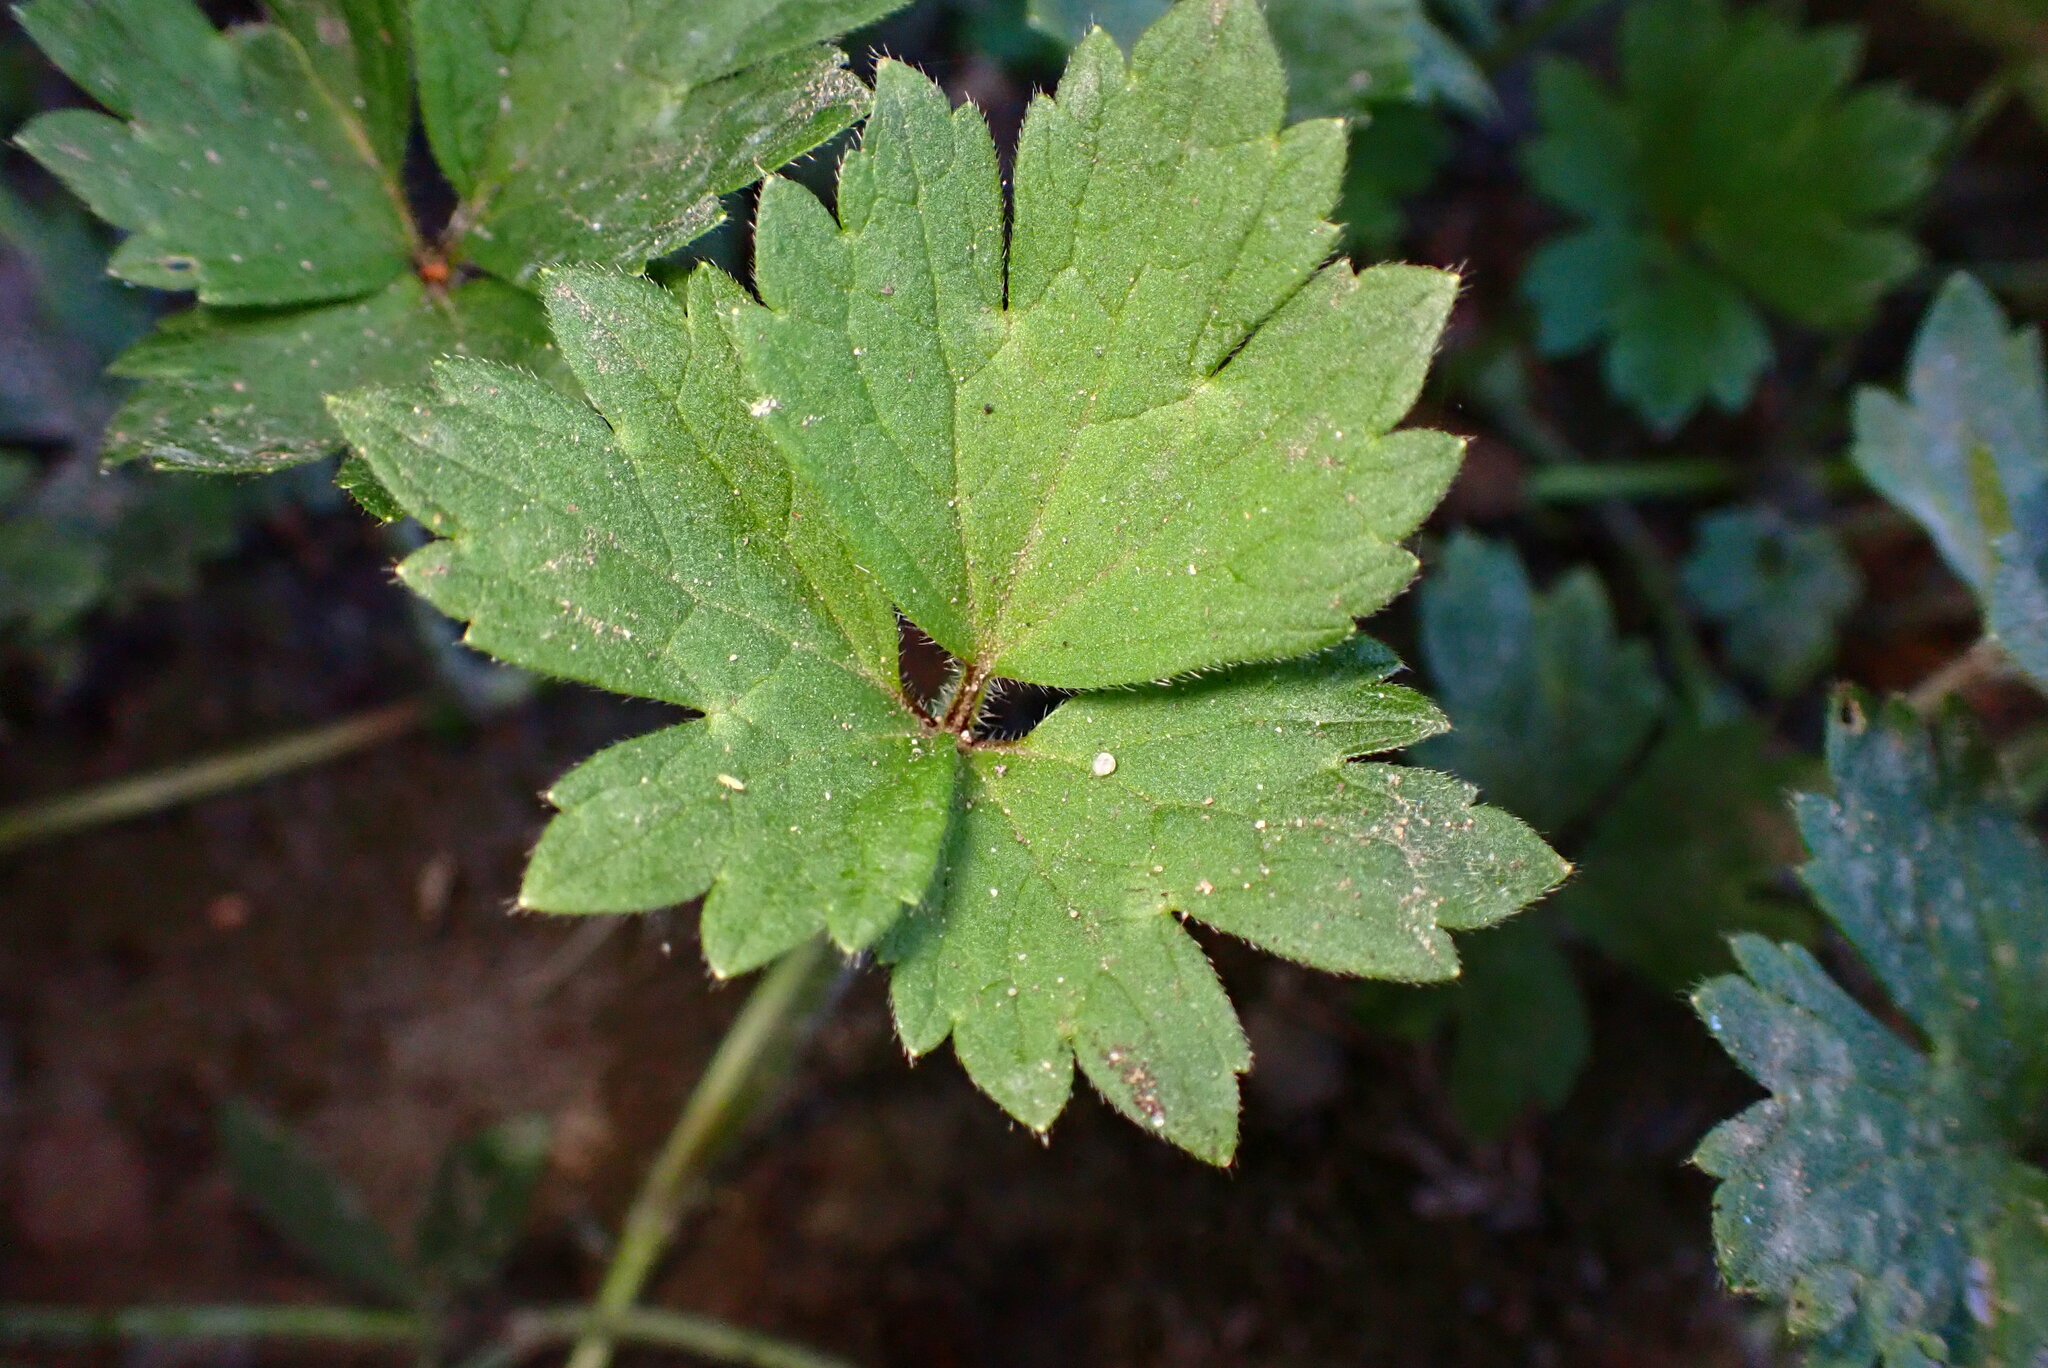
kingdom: Plantae
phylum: Tracheophyta
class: Magnoliopsida
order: Ranunculales
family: Ranunculaceae
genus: Ranunculus
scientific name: Ranunculus repens
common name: Creeping buttercup
